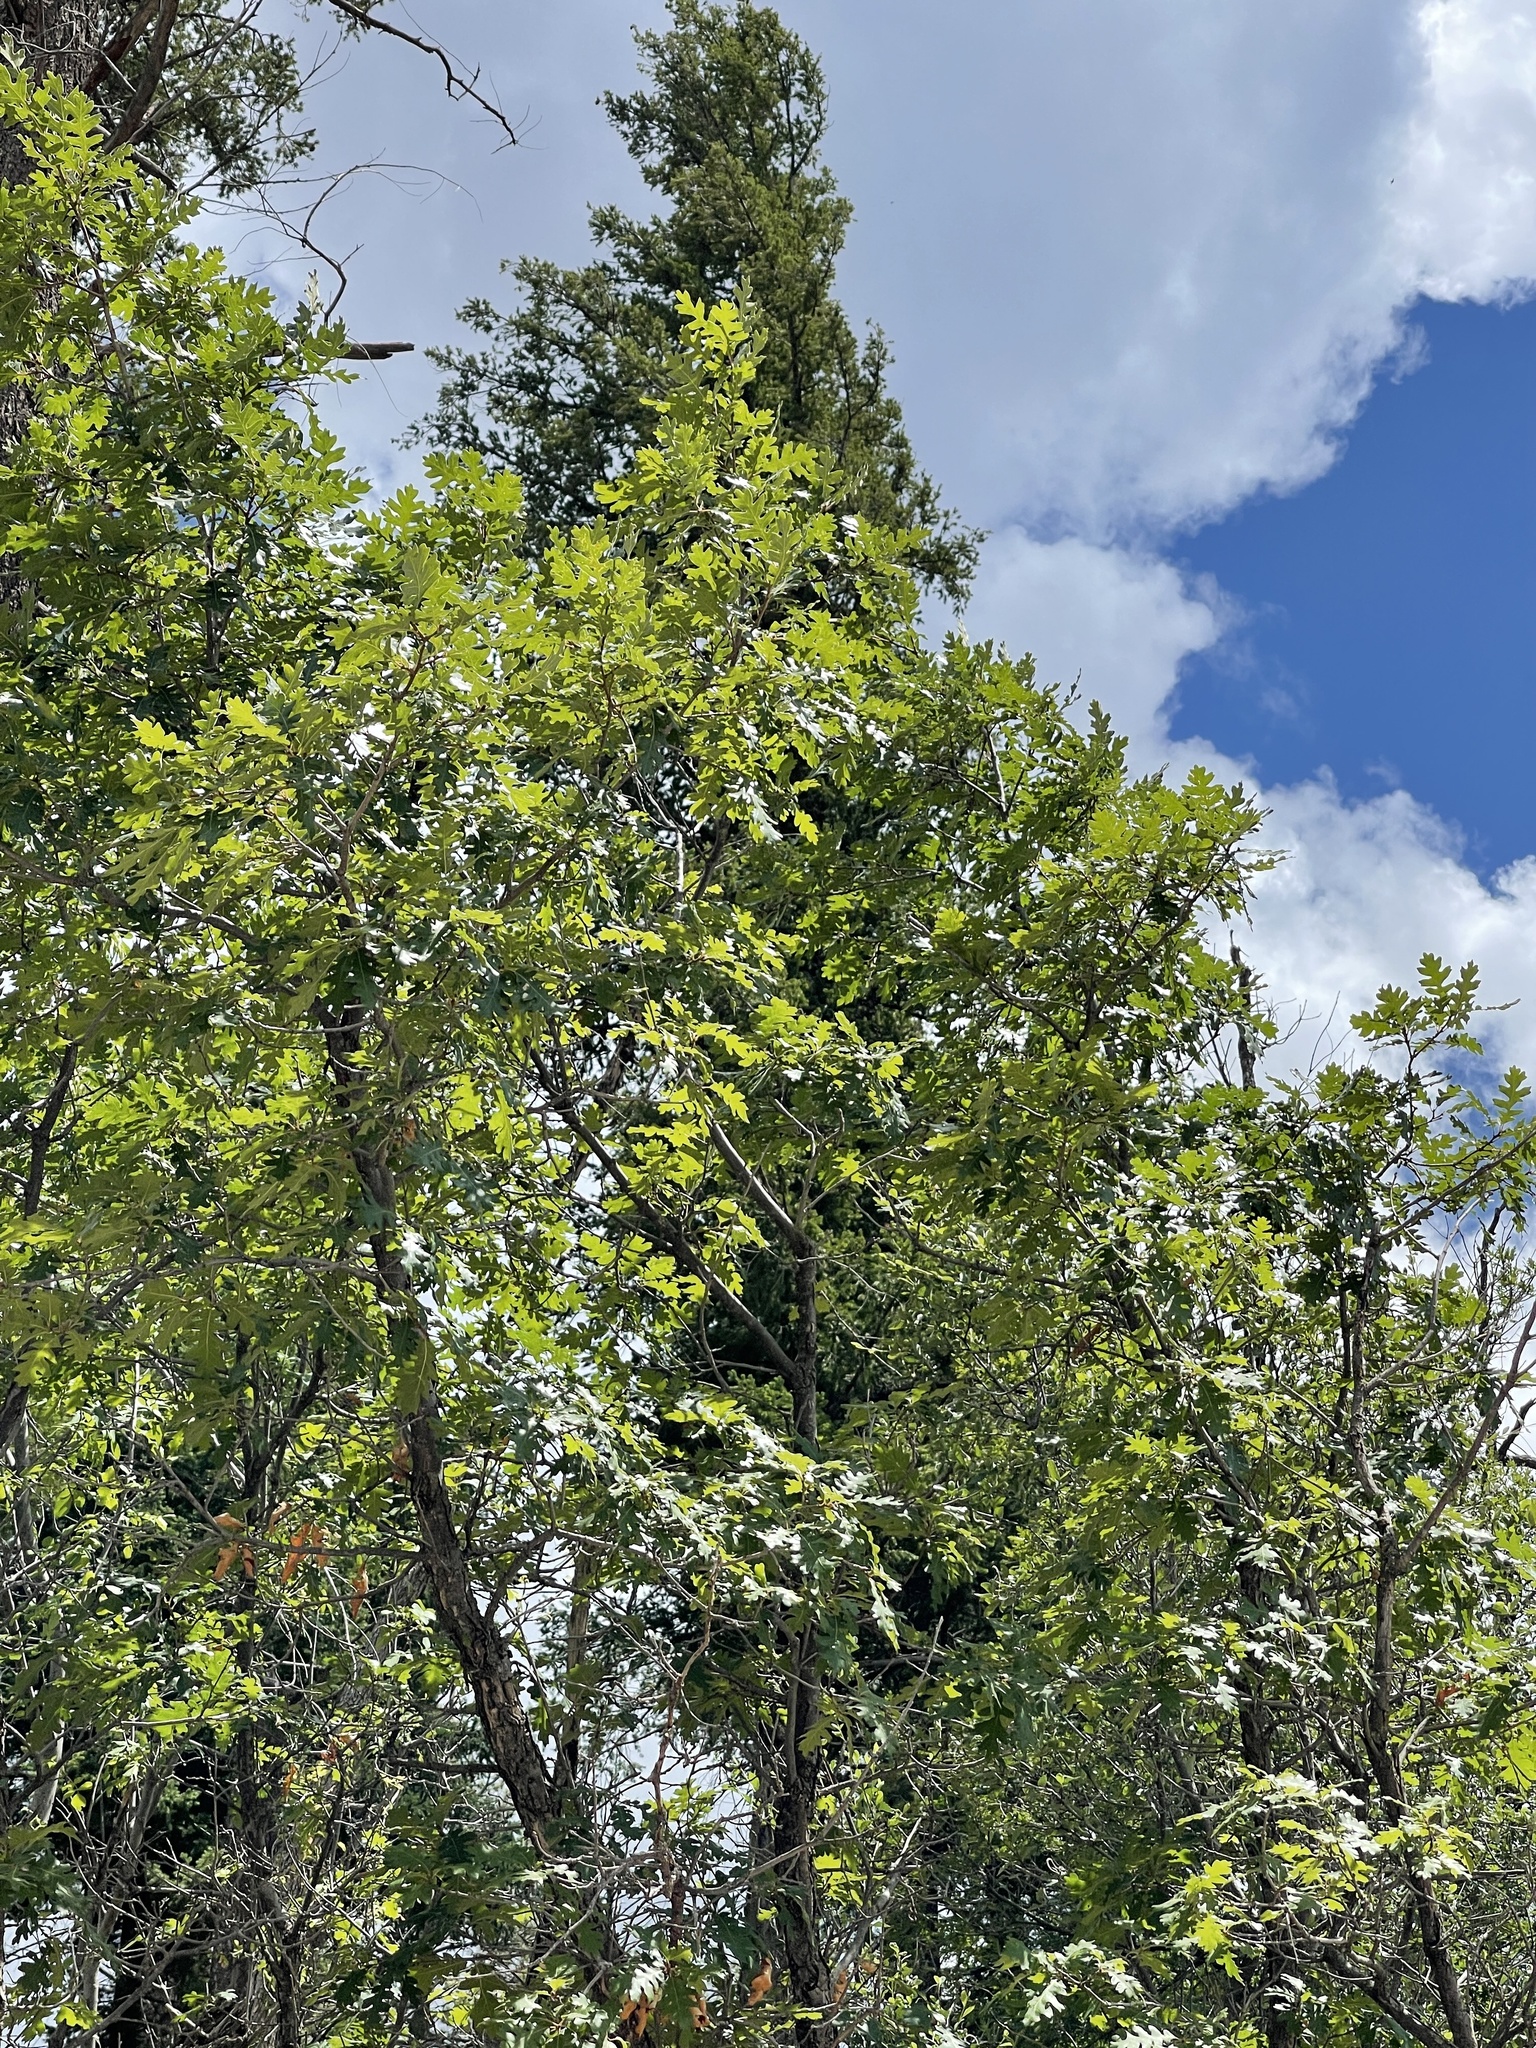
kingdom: Plantae
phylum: Tracheophyta
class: Magnoliopsida
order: Fagales
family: Fagaceae
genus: Quercus
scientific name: Quercus gambelii
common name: Gambel oak
